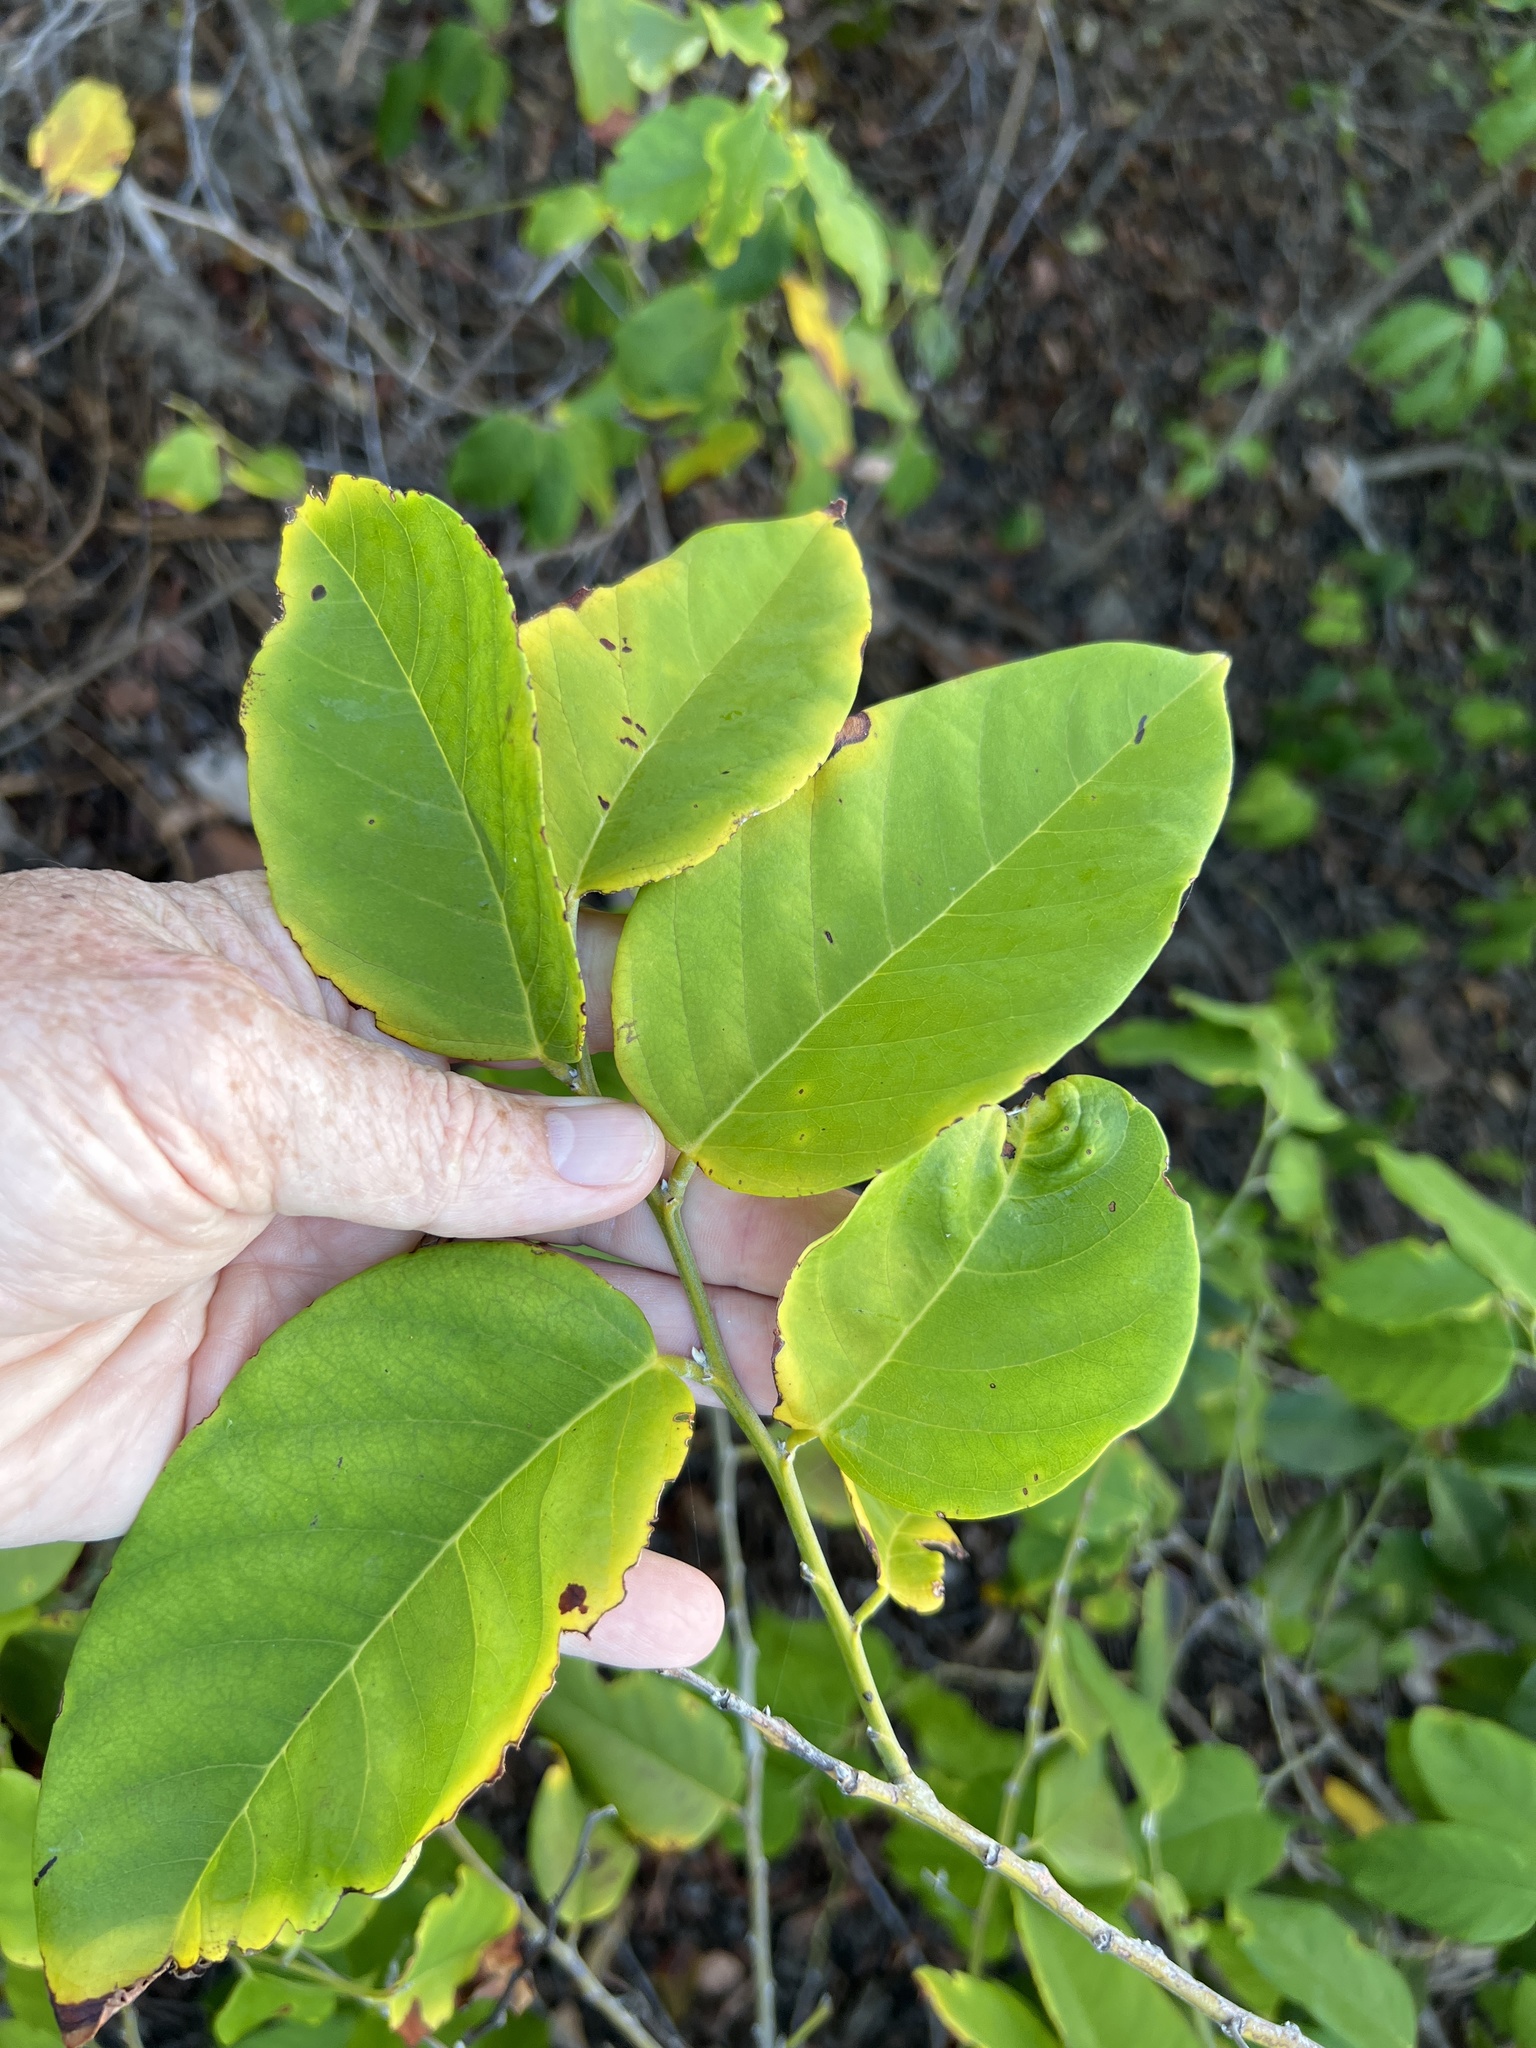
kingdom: Plantae
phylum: Tracheophyta
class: Magnoliopsida
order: Fabales
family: Fabaceae
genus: Dalbergia
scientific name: Dalbergia ecastaphyllum
